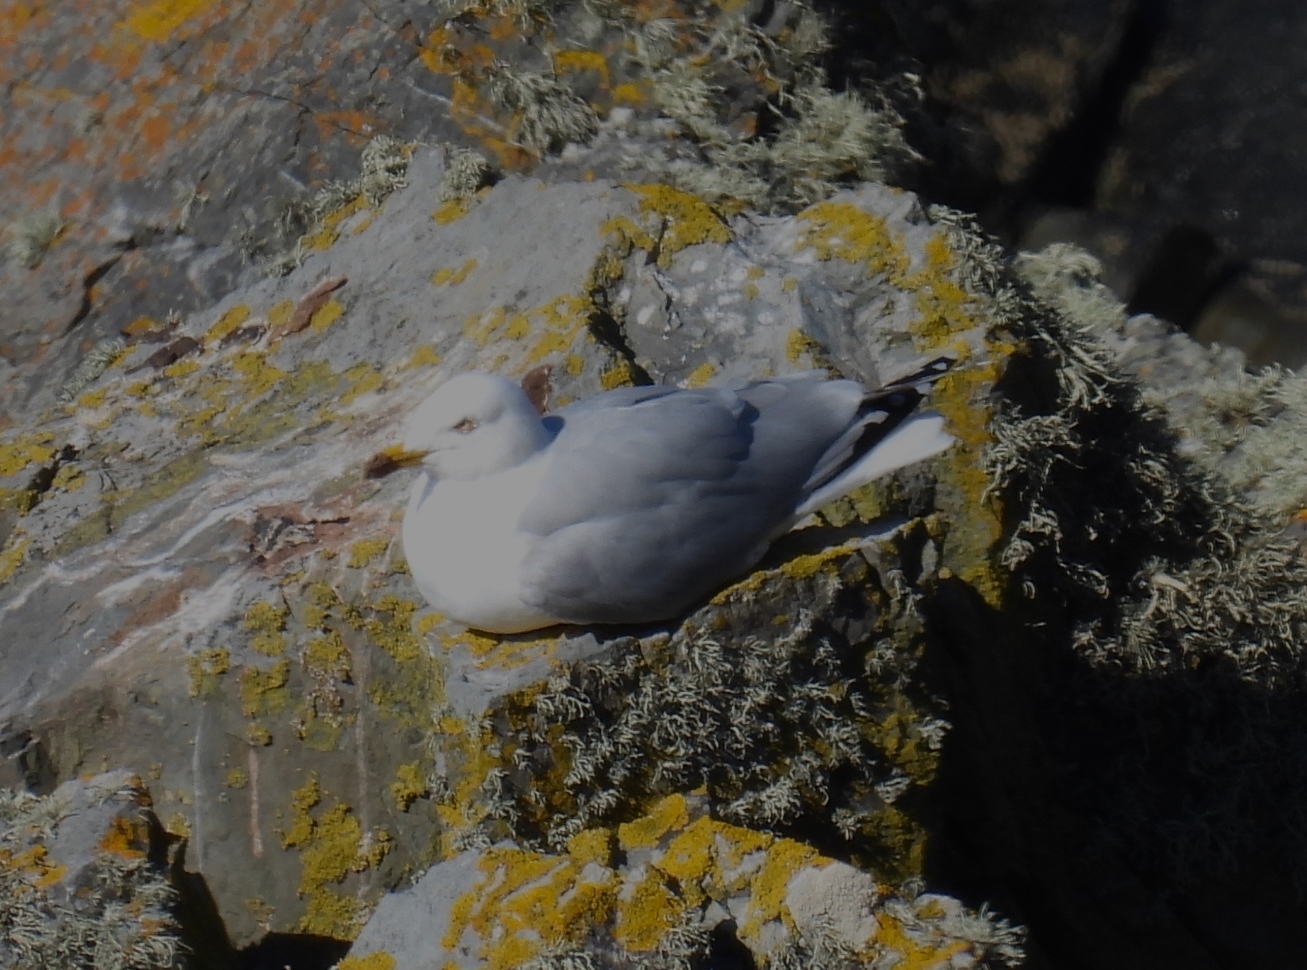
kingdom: Animalia
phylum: Chordata
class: Aves
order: Charadriiformes
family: Laridae
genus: Larus
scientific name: Larus argentatus
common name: Herring gull
